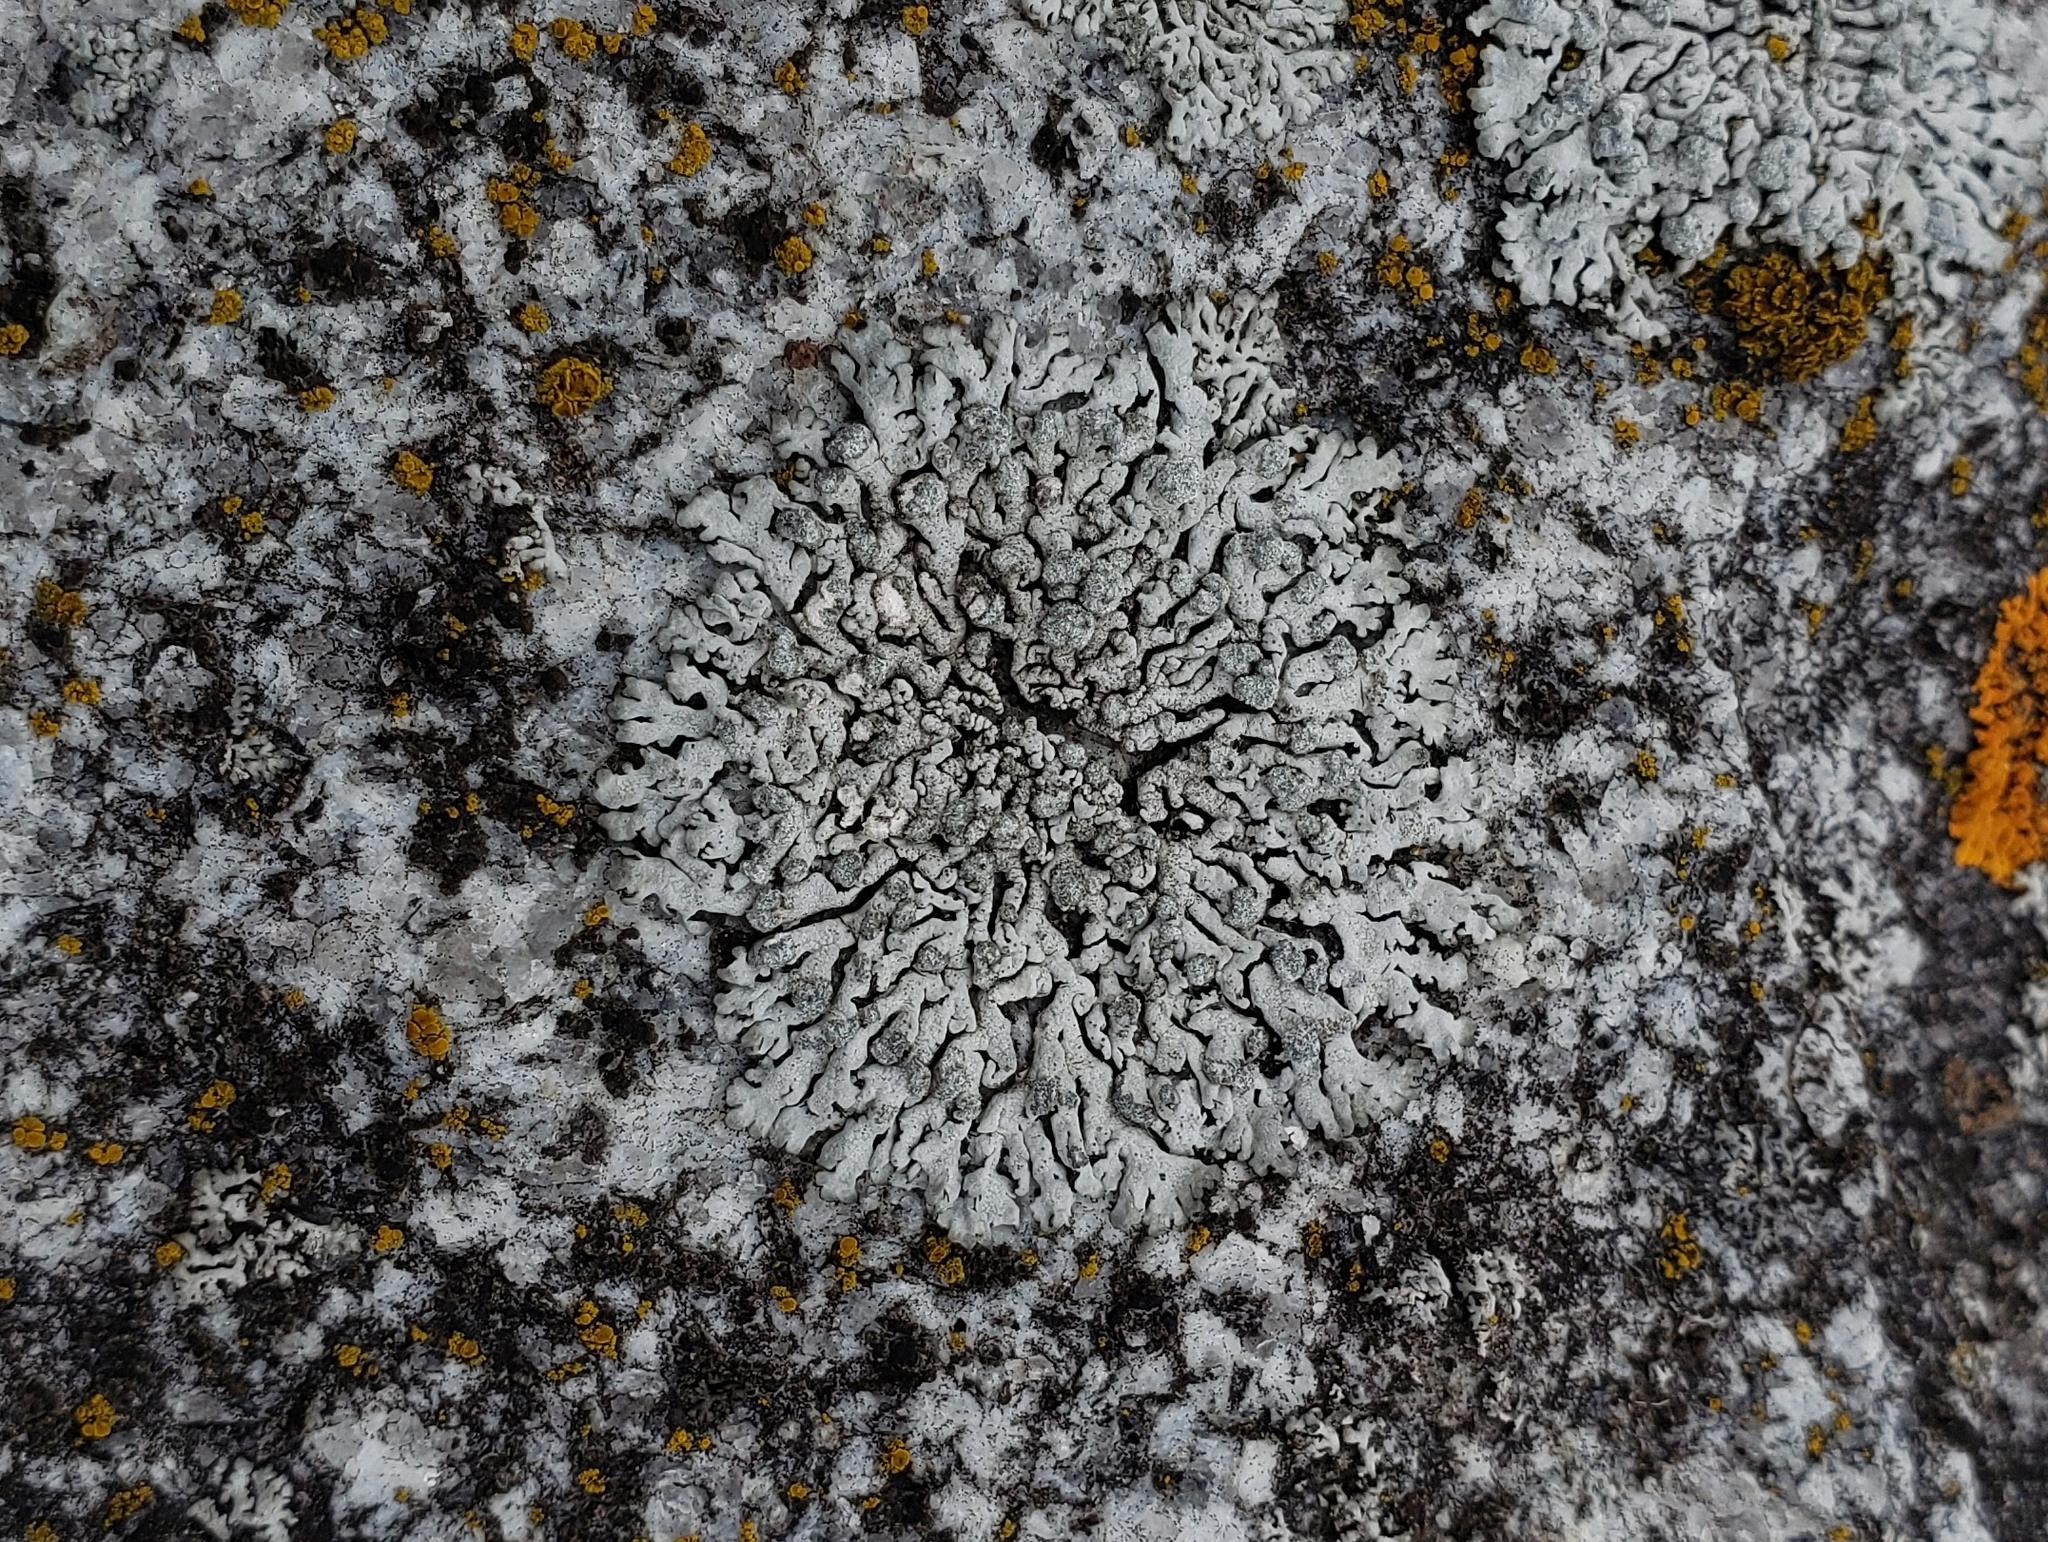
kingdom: Fungi
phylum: Ascomycota
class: Lecanoromycetes
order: Caliciales
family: Physciaceae
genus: Physcia
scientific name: Physcia caesia
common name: Blue-gray rosette lichen
